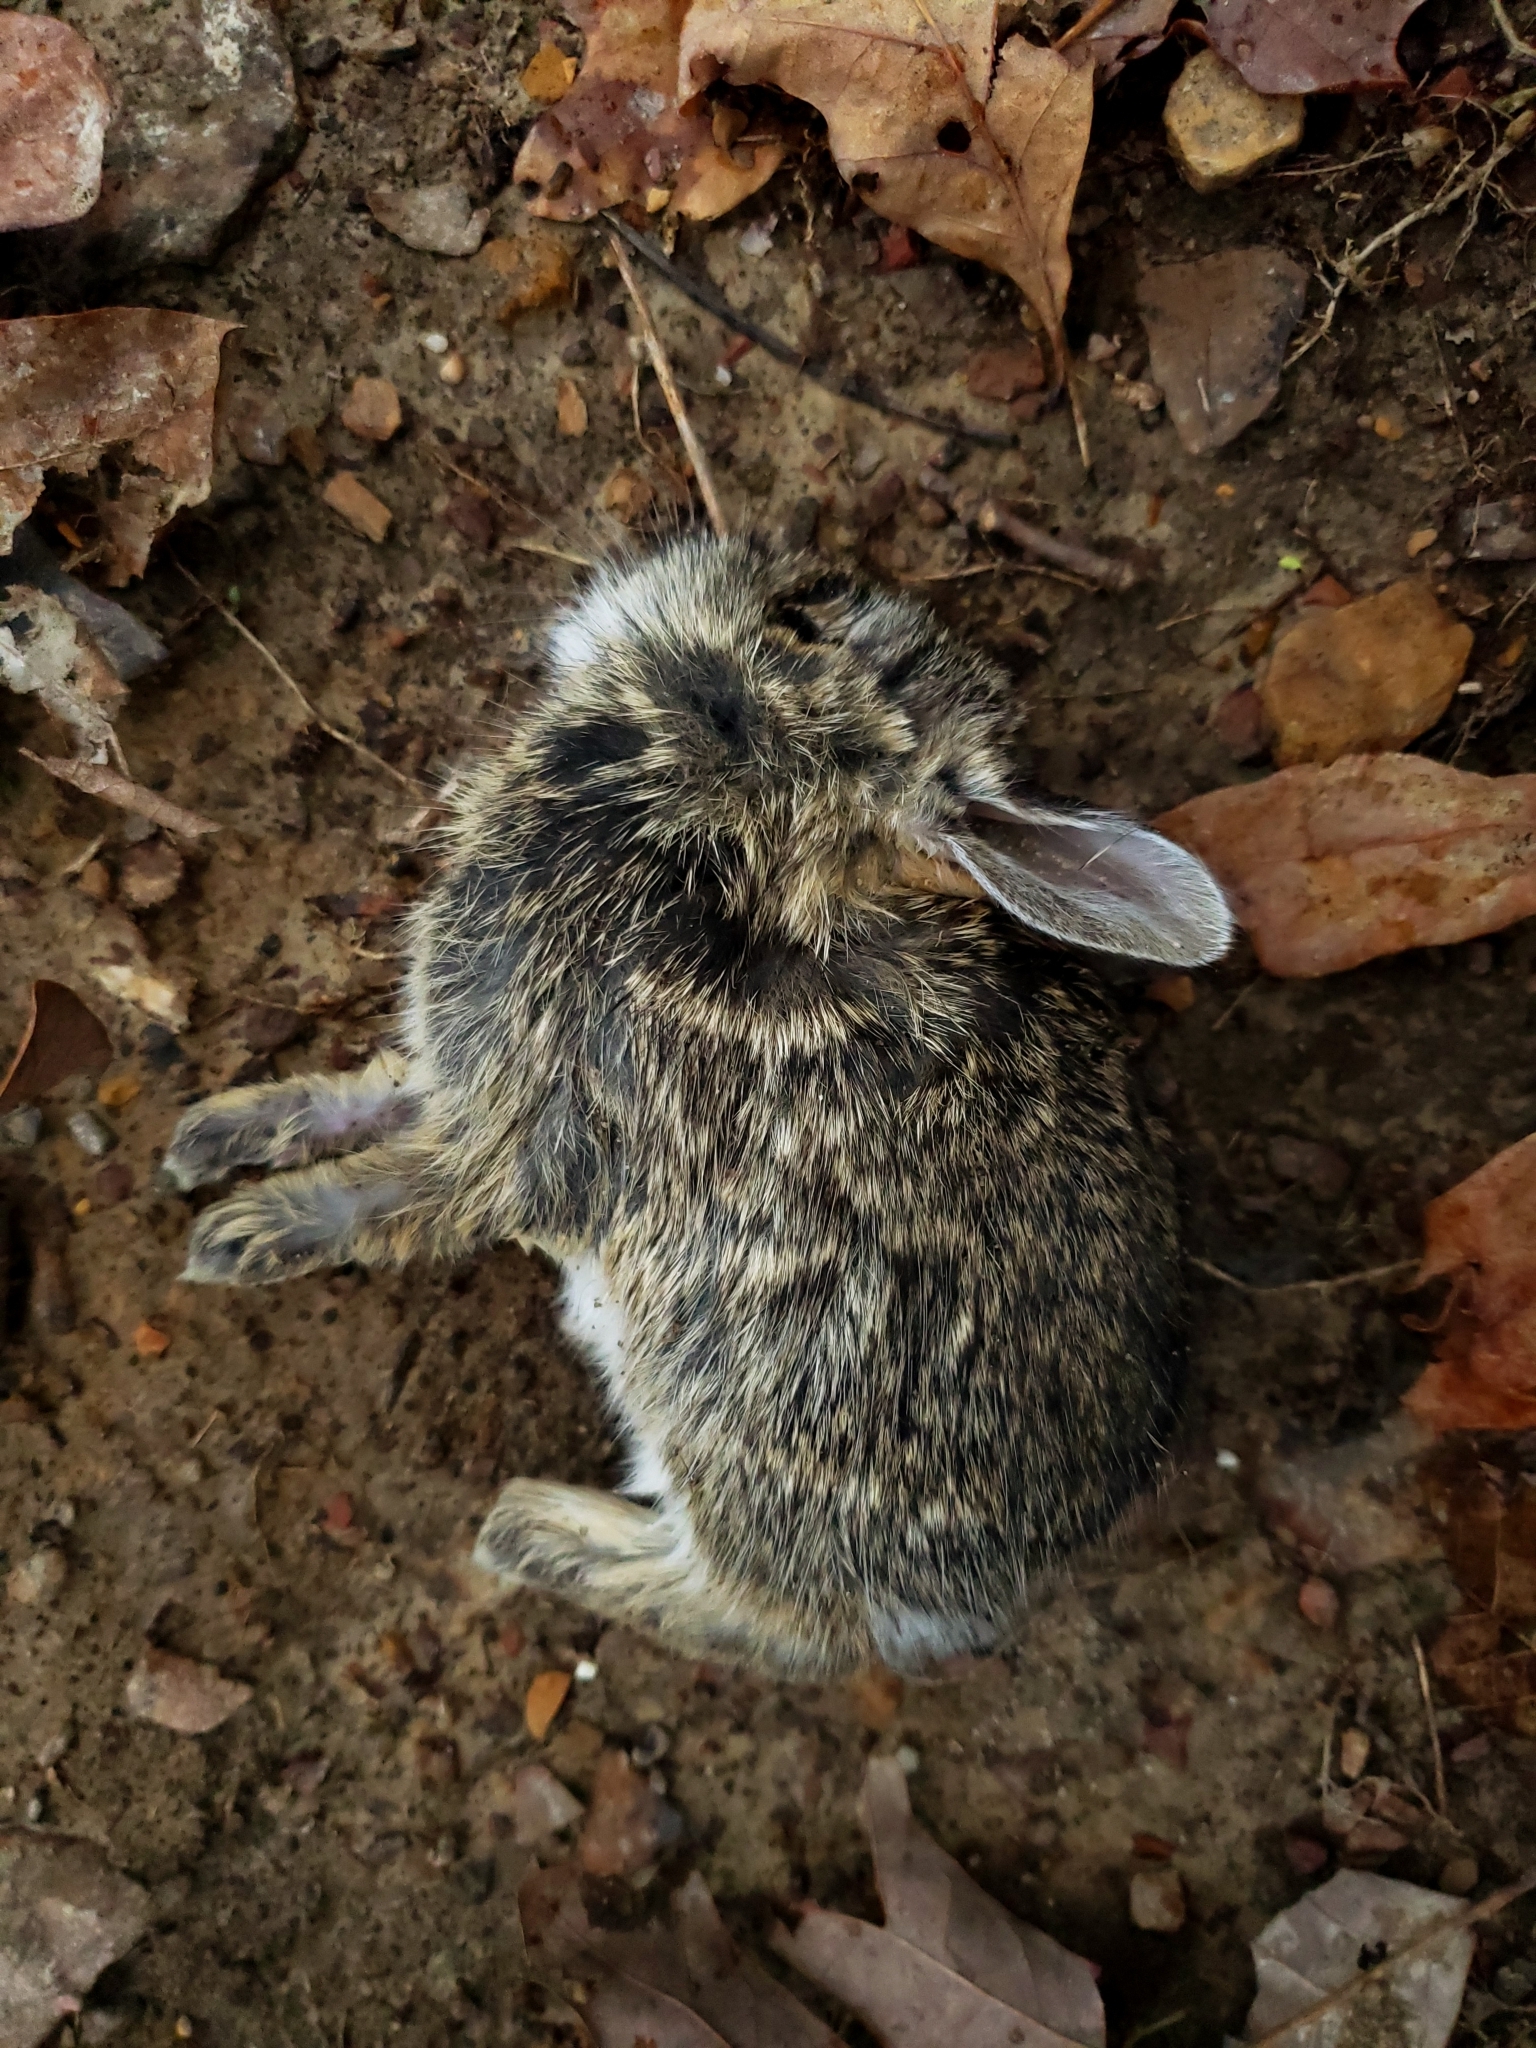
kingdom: Animalia
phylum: Chordata
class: Mammalia
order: Lagomorpha
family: Leporidae
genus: Sylvilagus
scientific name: Sylvilagus floridanus
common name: Eastern cottontail
